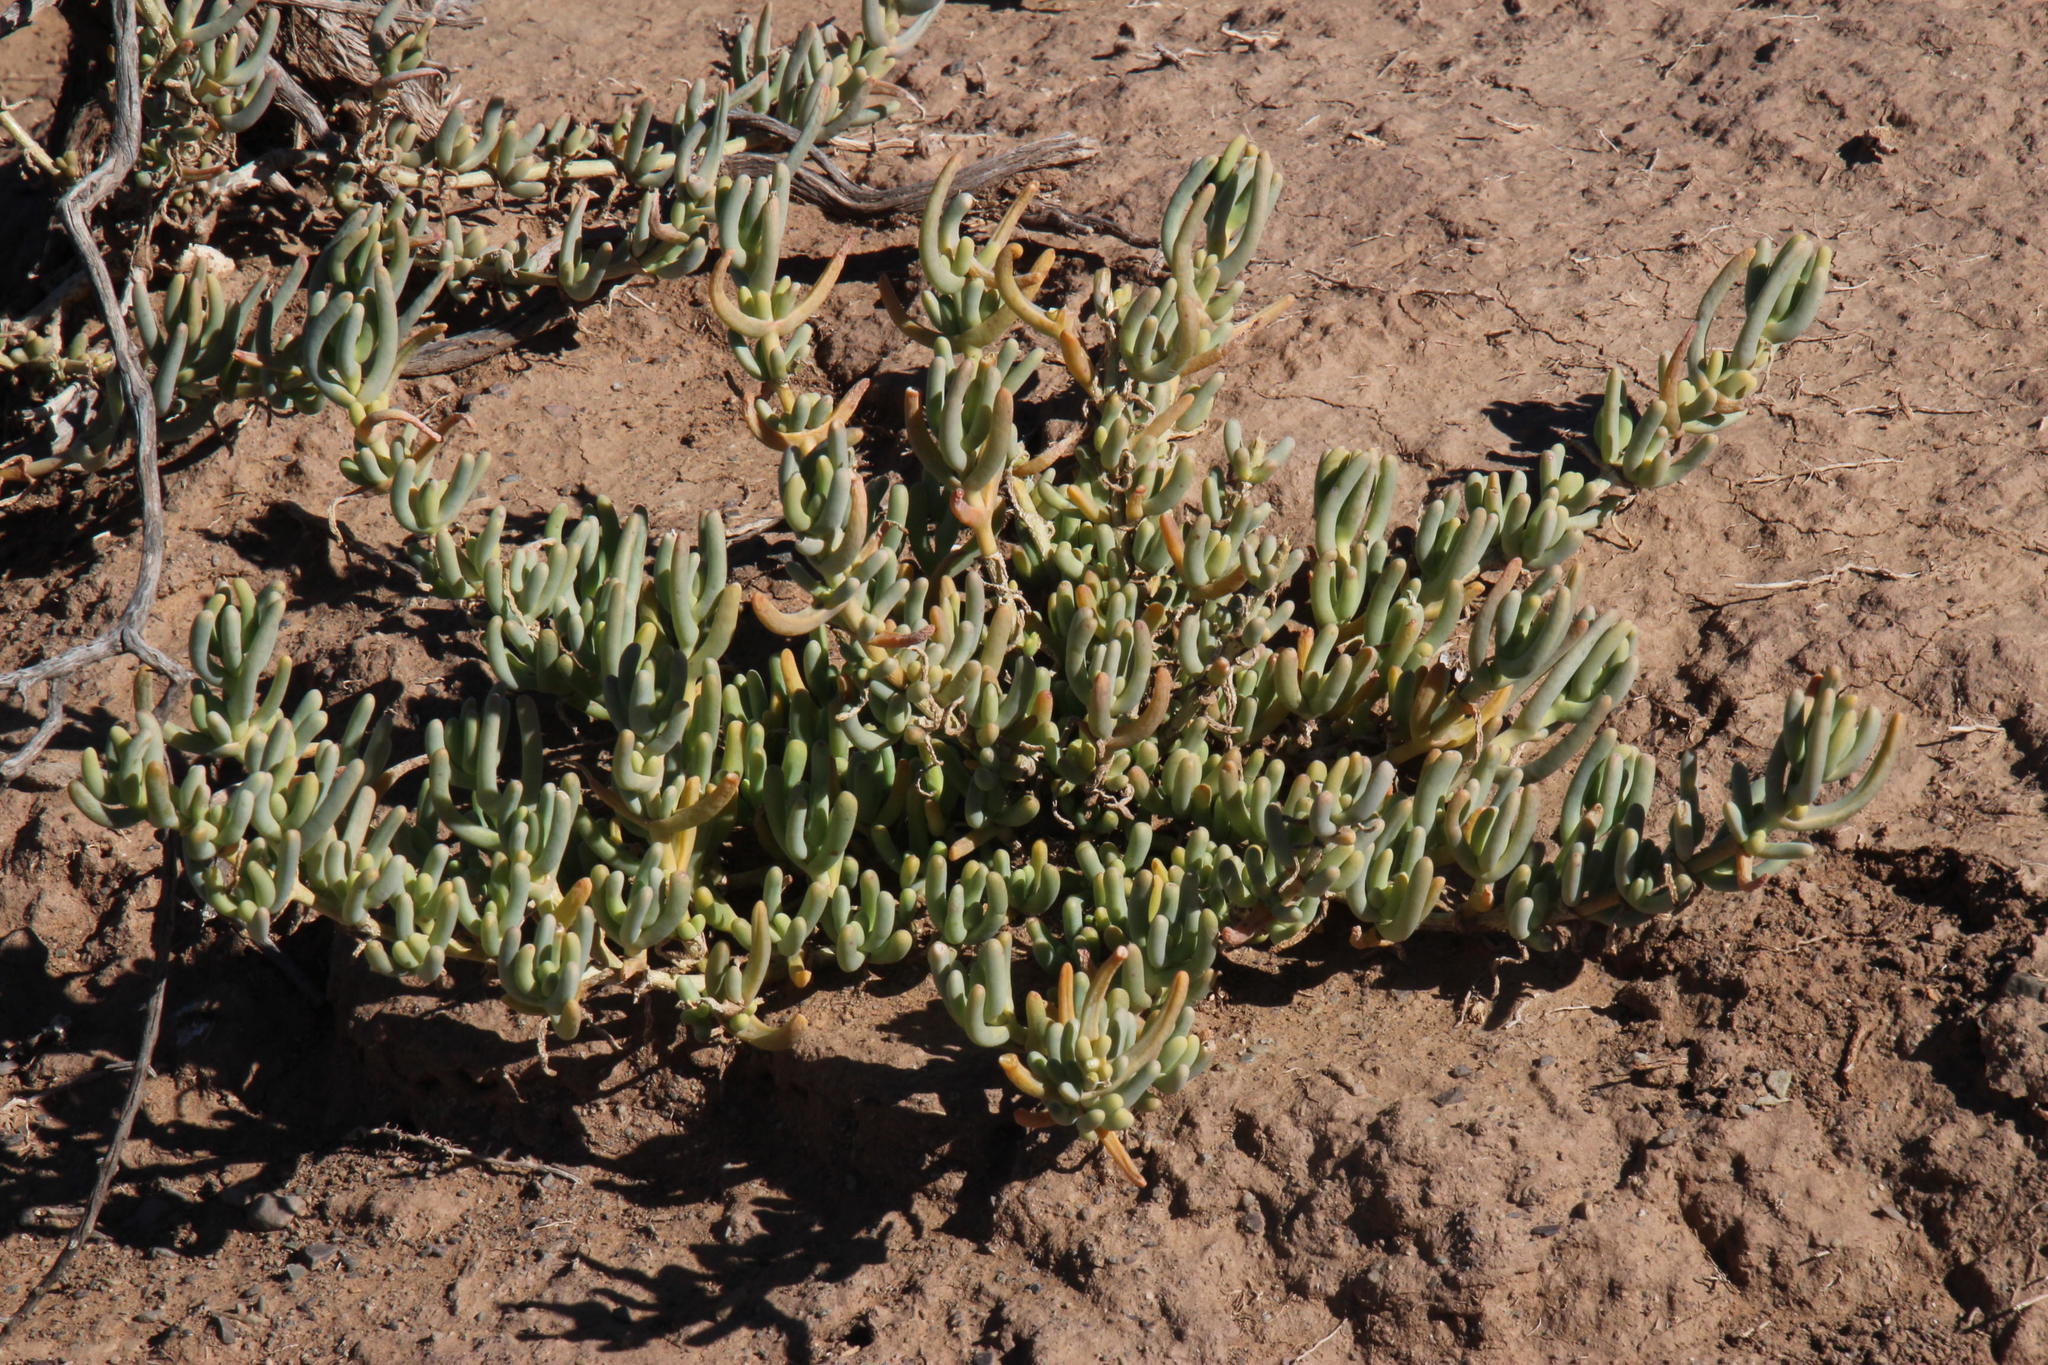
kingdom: Plantae
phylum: Tracheophyta
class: Magnoliopsida
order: Caryophyllales
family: Aizoaceae
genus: Mesembryanthemum
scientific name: Mesembryanthemum tetragonum
